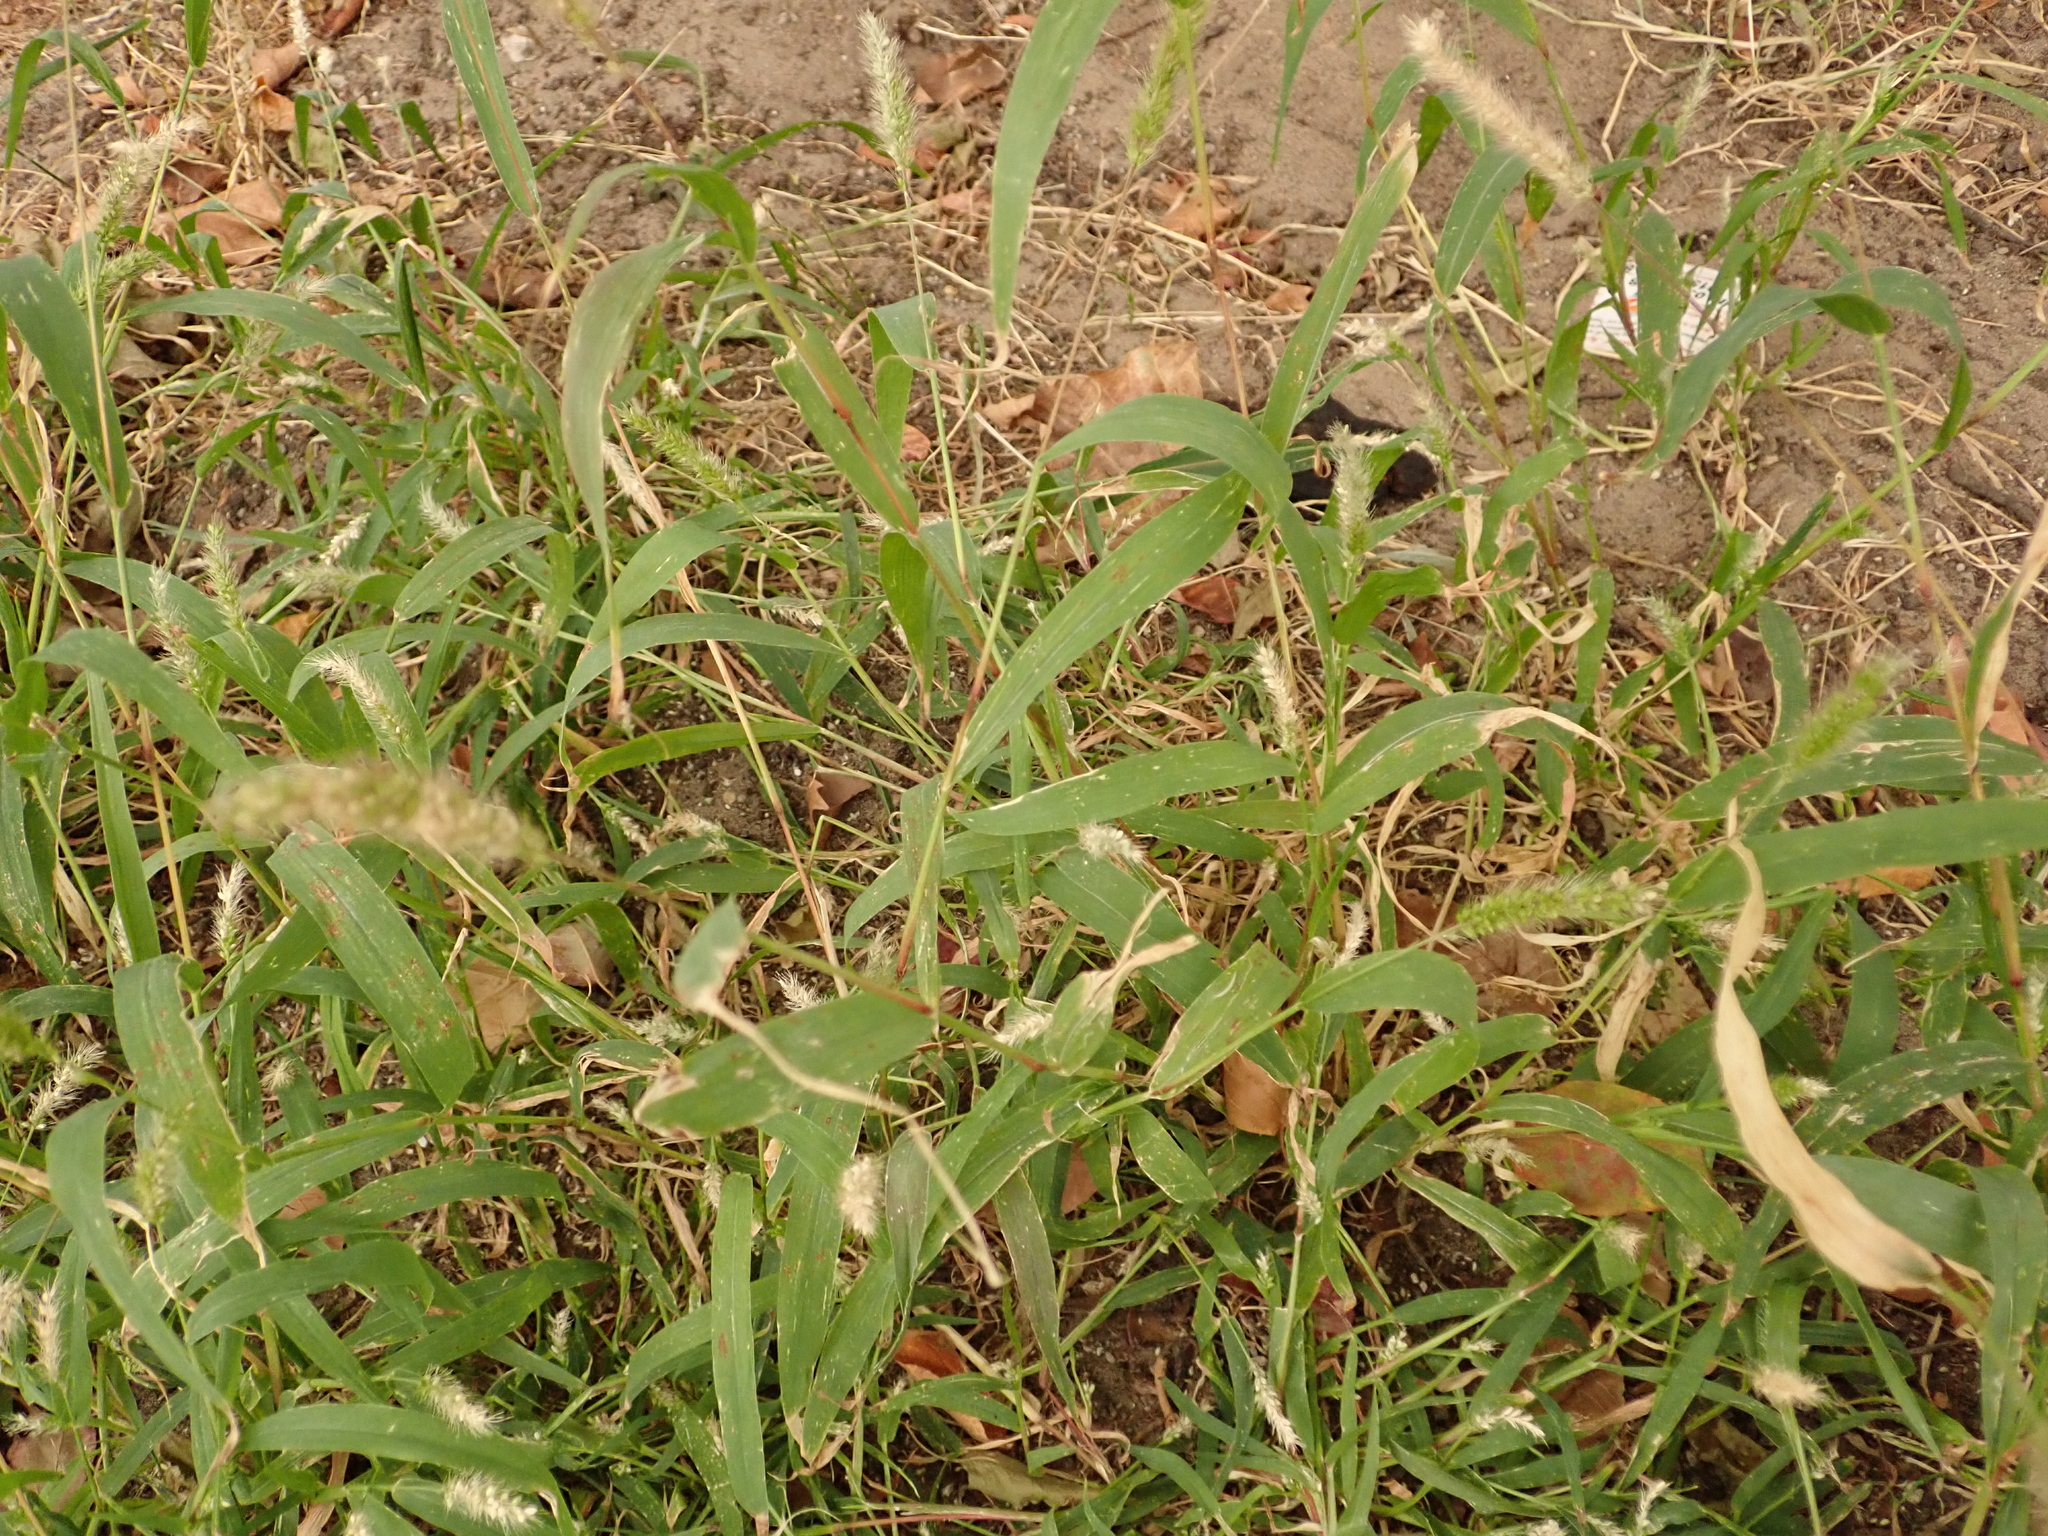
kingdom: Plantae
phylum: Tracheophyta
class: Liliopsida
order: Poales
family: Poaceae
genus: Setaria
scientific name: Setaria viridis
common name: Green bristlegrass
